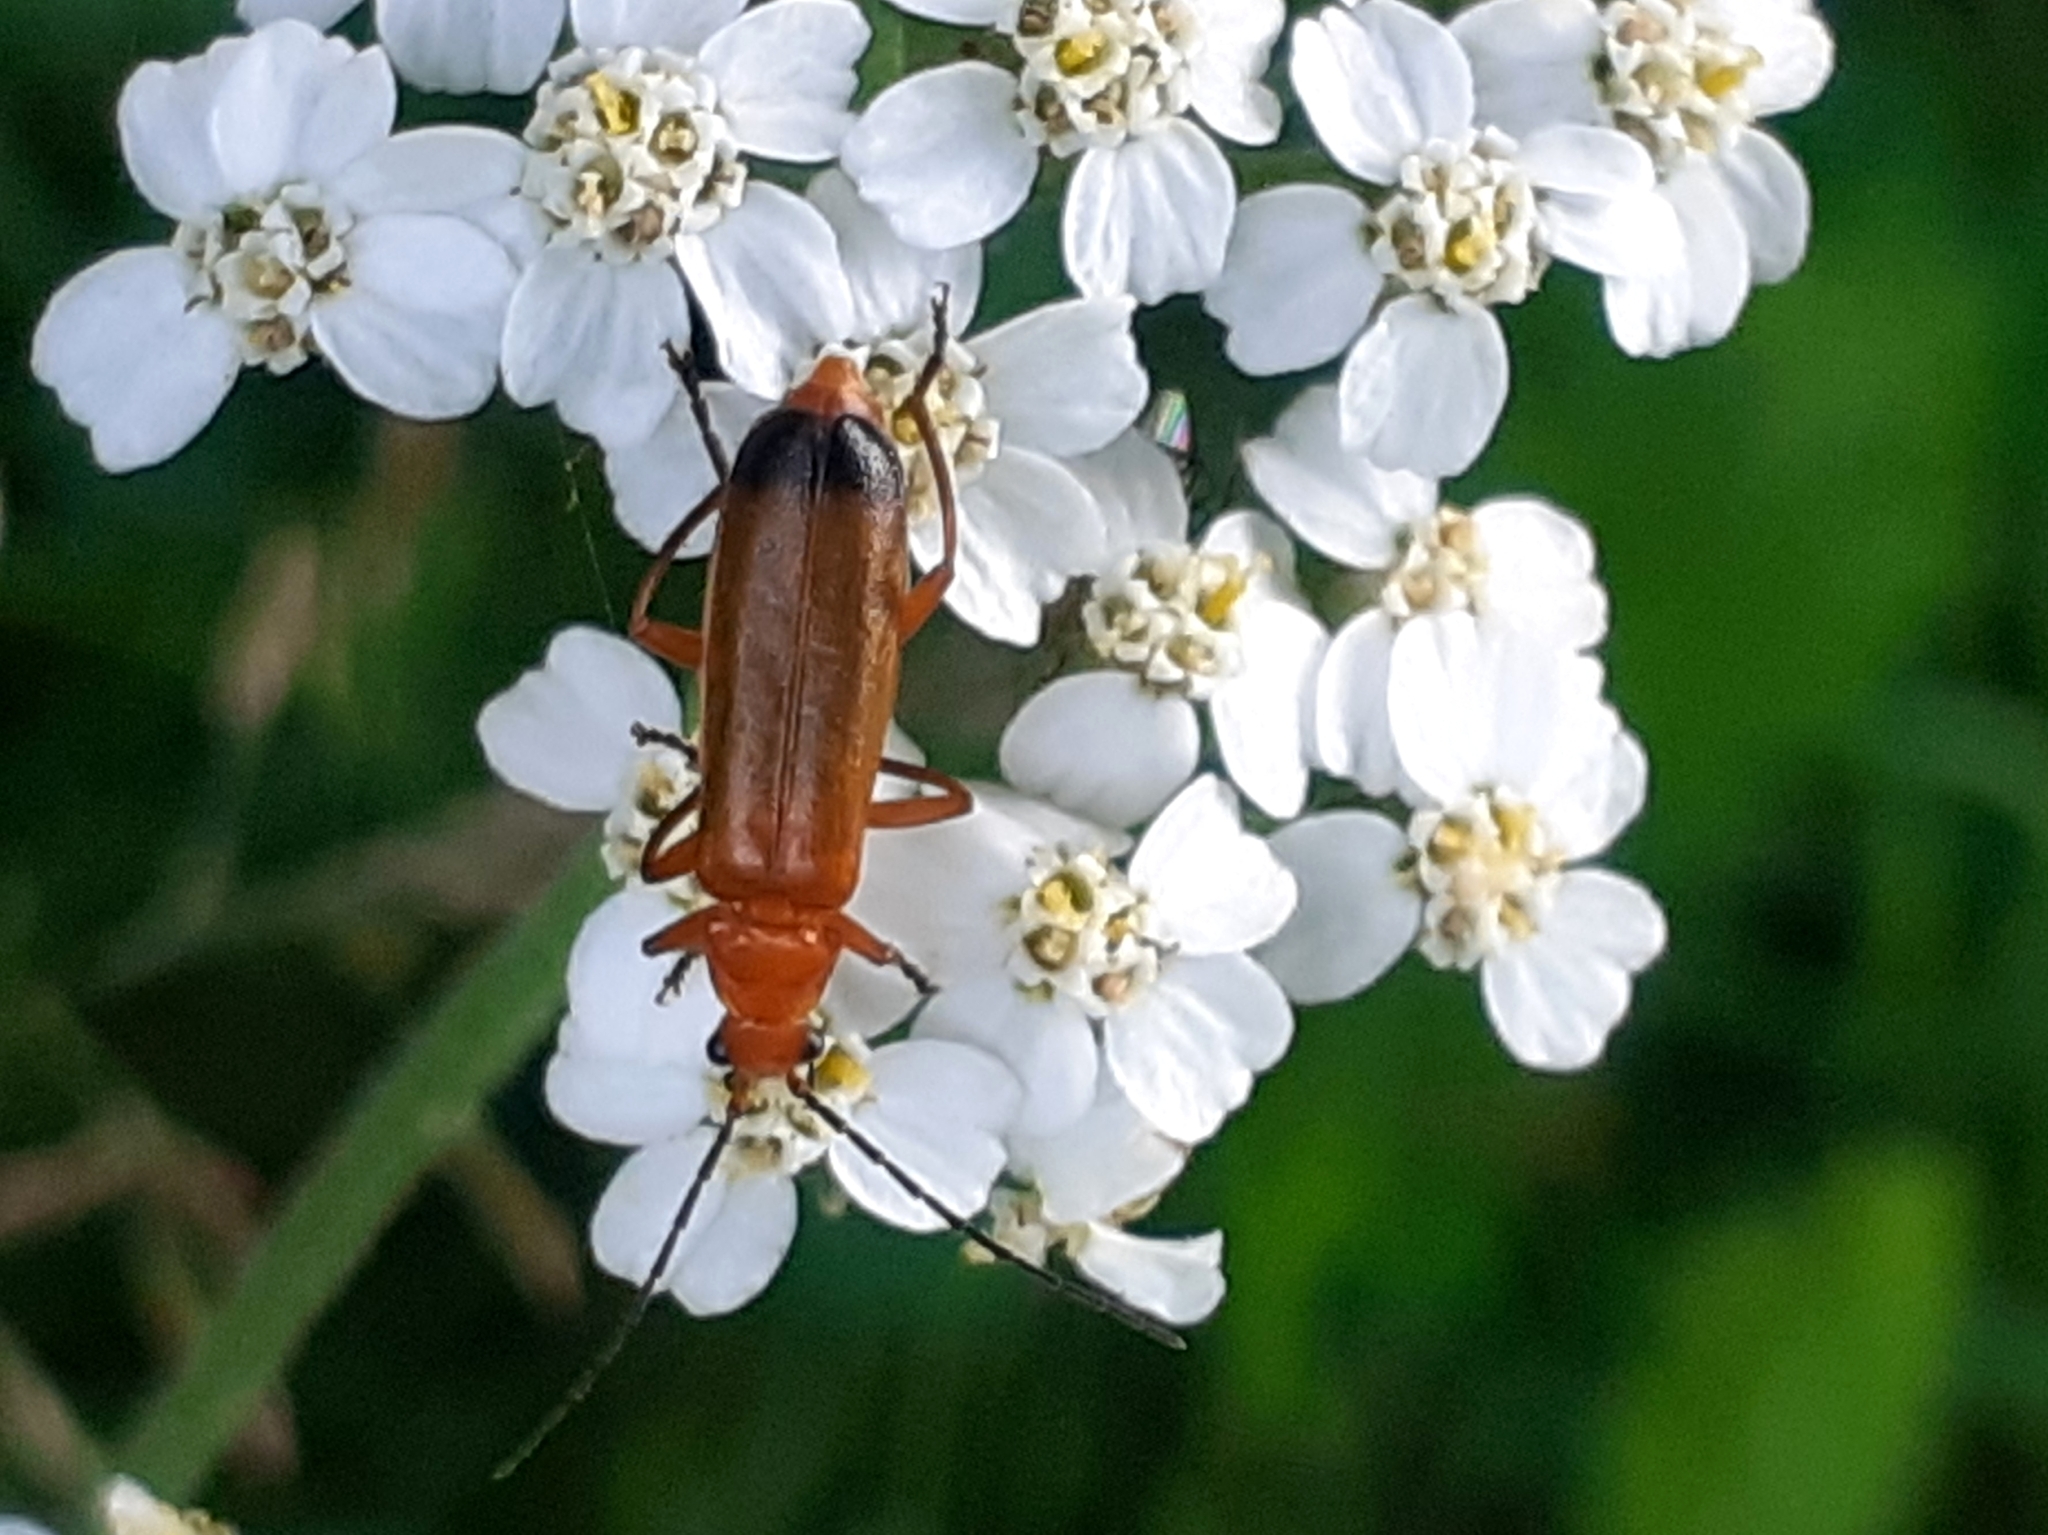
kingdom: Animalia
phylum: Arthropoda
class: Insecta
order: Coleoptera
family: Cantharidae
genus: Rhagonycha
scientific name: Rhagonycha fulva
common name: Common red soldier beetle
